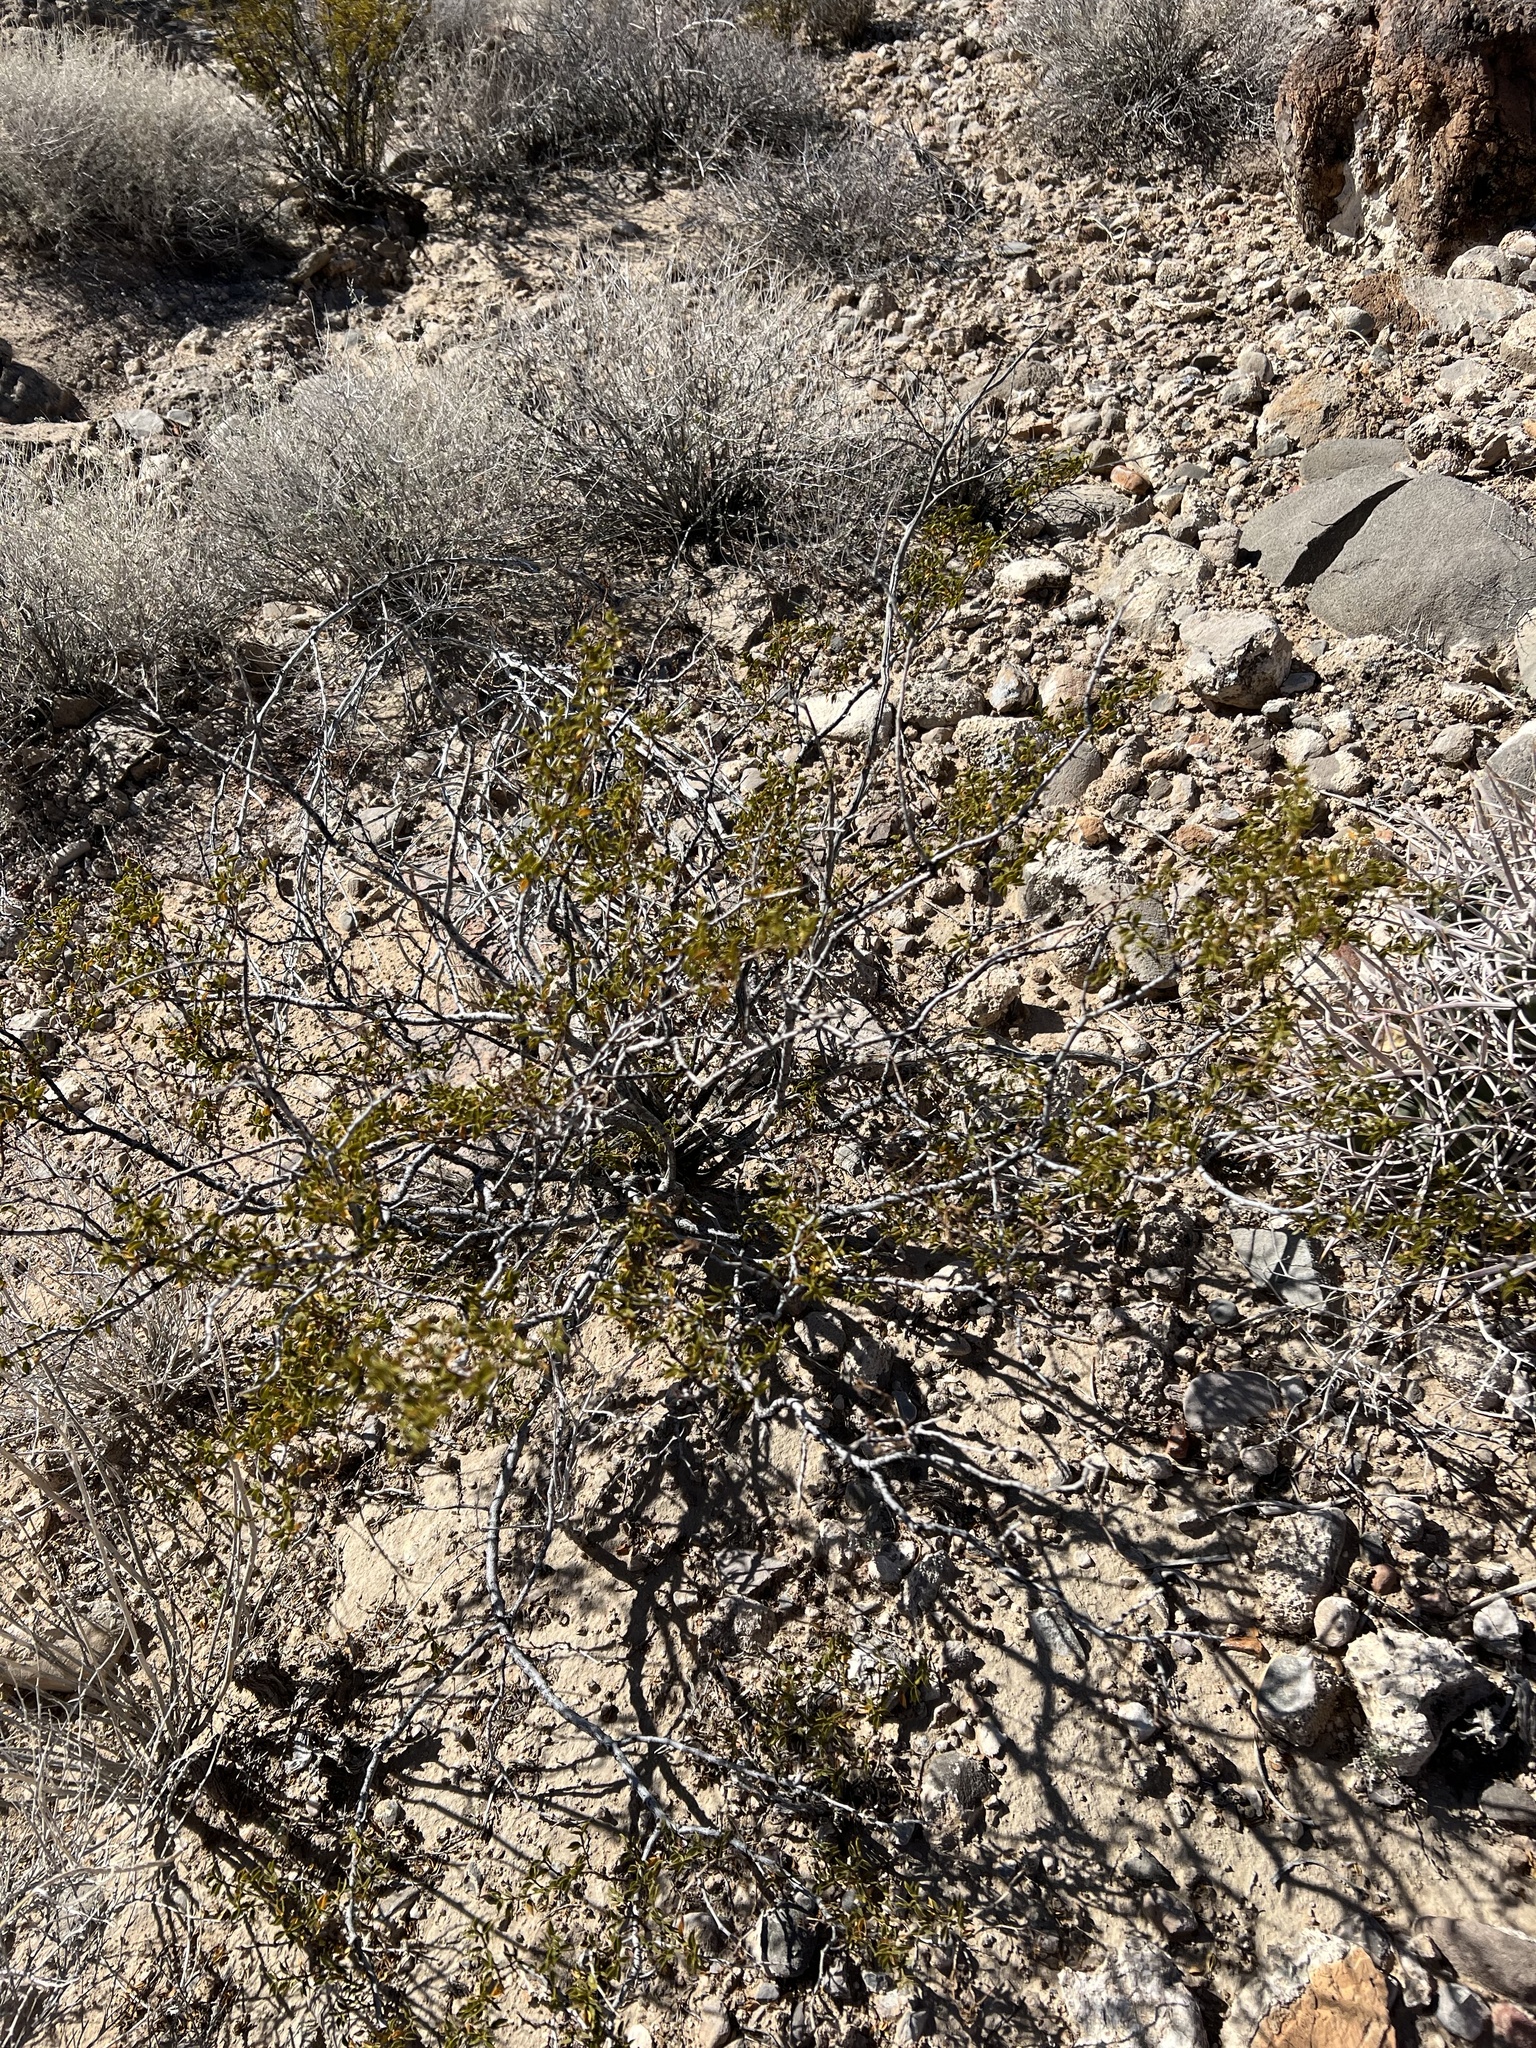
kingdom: Plantae
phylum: Tracheophyta
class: Magnoliopsida
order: Zygophyllales
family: Zygophyllaceae
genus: Larrea
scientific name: Larrea tridentata
